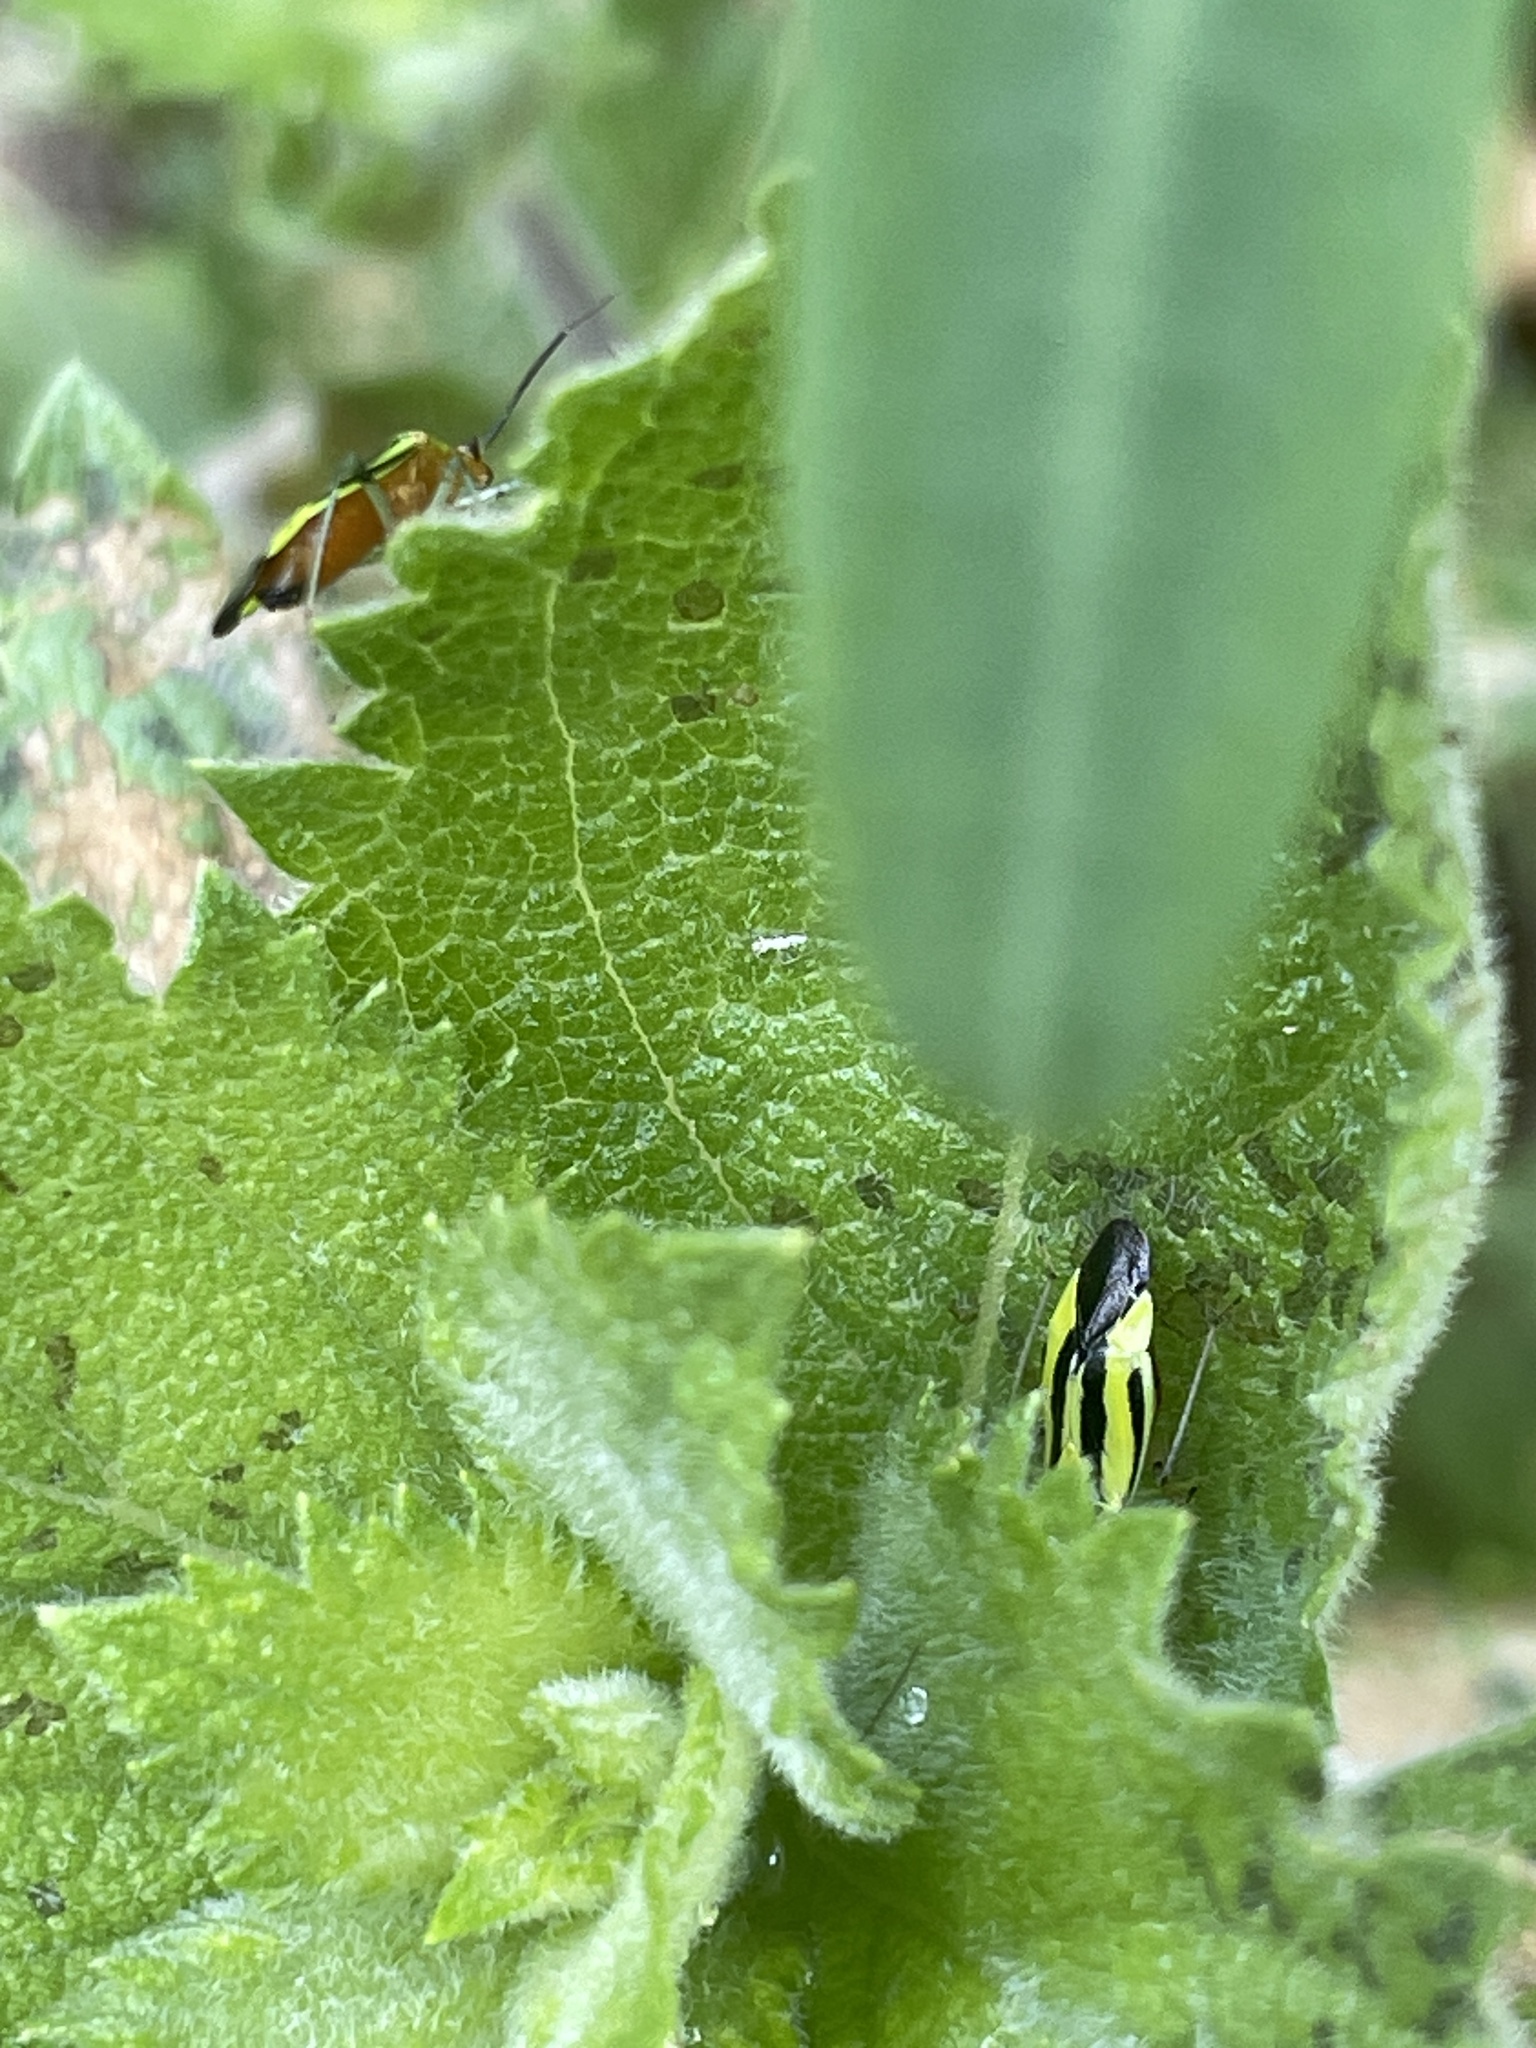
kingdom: Animalia
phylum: Arthropoda
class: Insecta
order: Hemiptera
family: Miridae
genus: Poecilocapsus
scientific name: Poecilocapsus lineatus
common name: Four-lined plant bug
